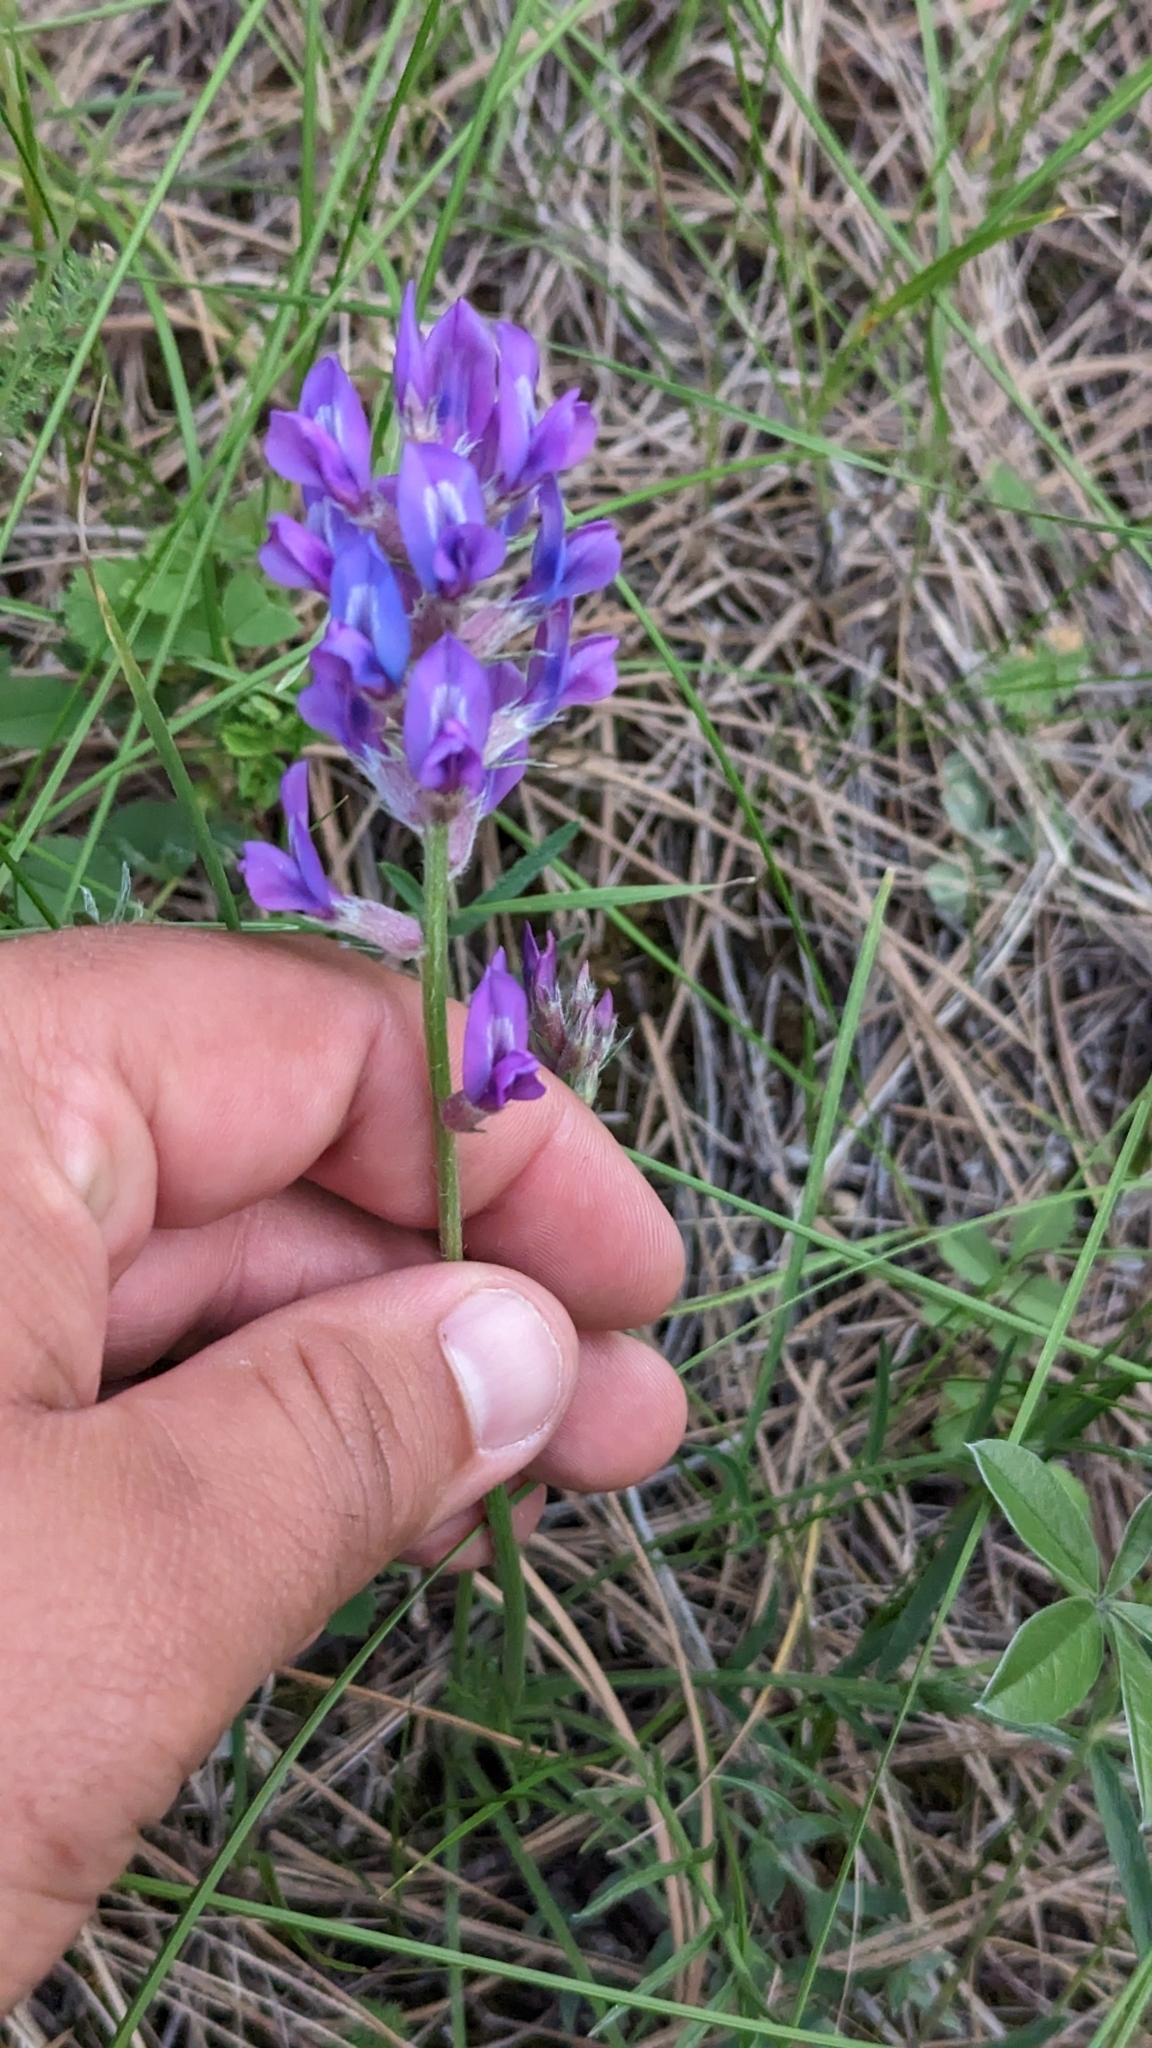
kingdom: Plantae
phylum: Tracheophyta
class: Magnoliopsida
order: Fabales
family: Fabaceae
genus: Oxytropis
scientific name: Oxytropis lambertii
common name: Purple locoweed
